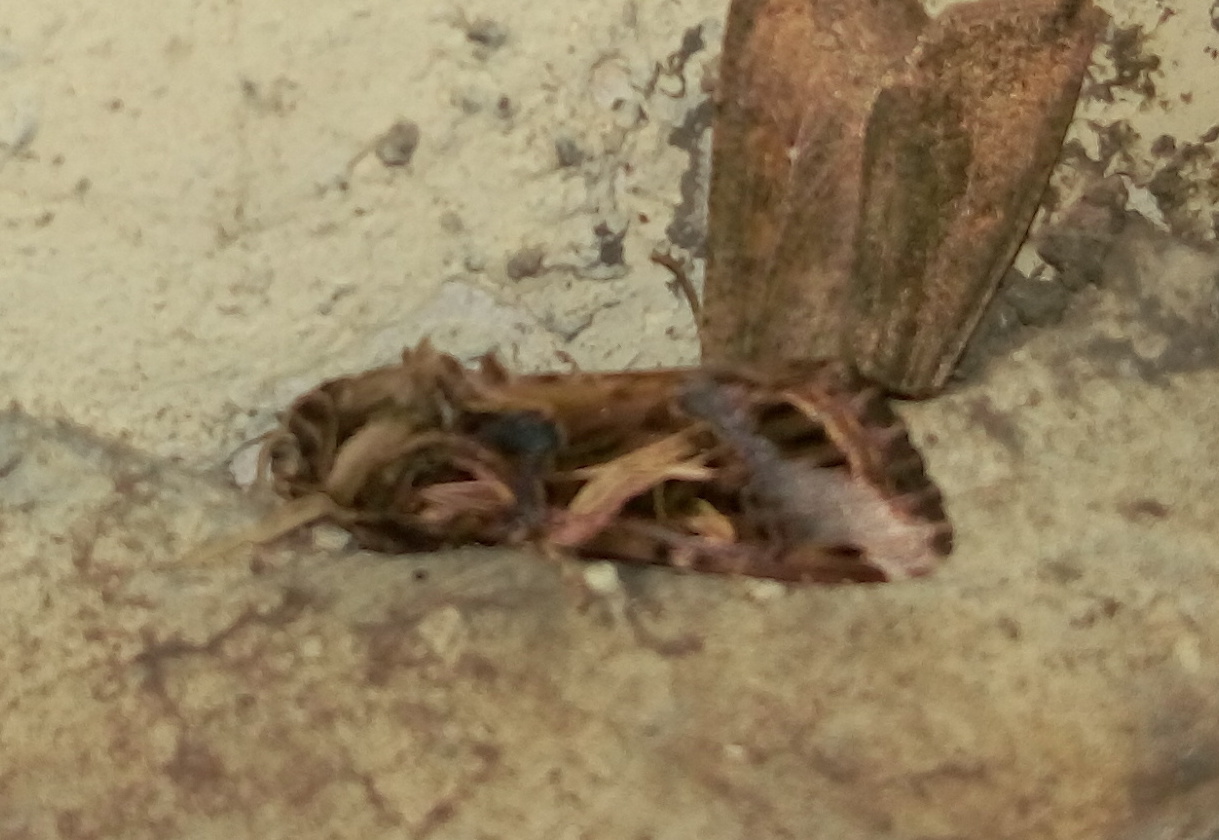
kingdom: Animalia
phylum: Arthropoda
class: Insecta
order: Lepidoptera
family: Noctuidae
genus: Spodoptera
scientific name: Spodoptera litura
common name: Asian cotton leafworm
